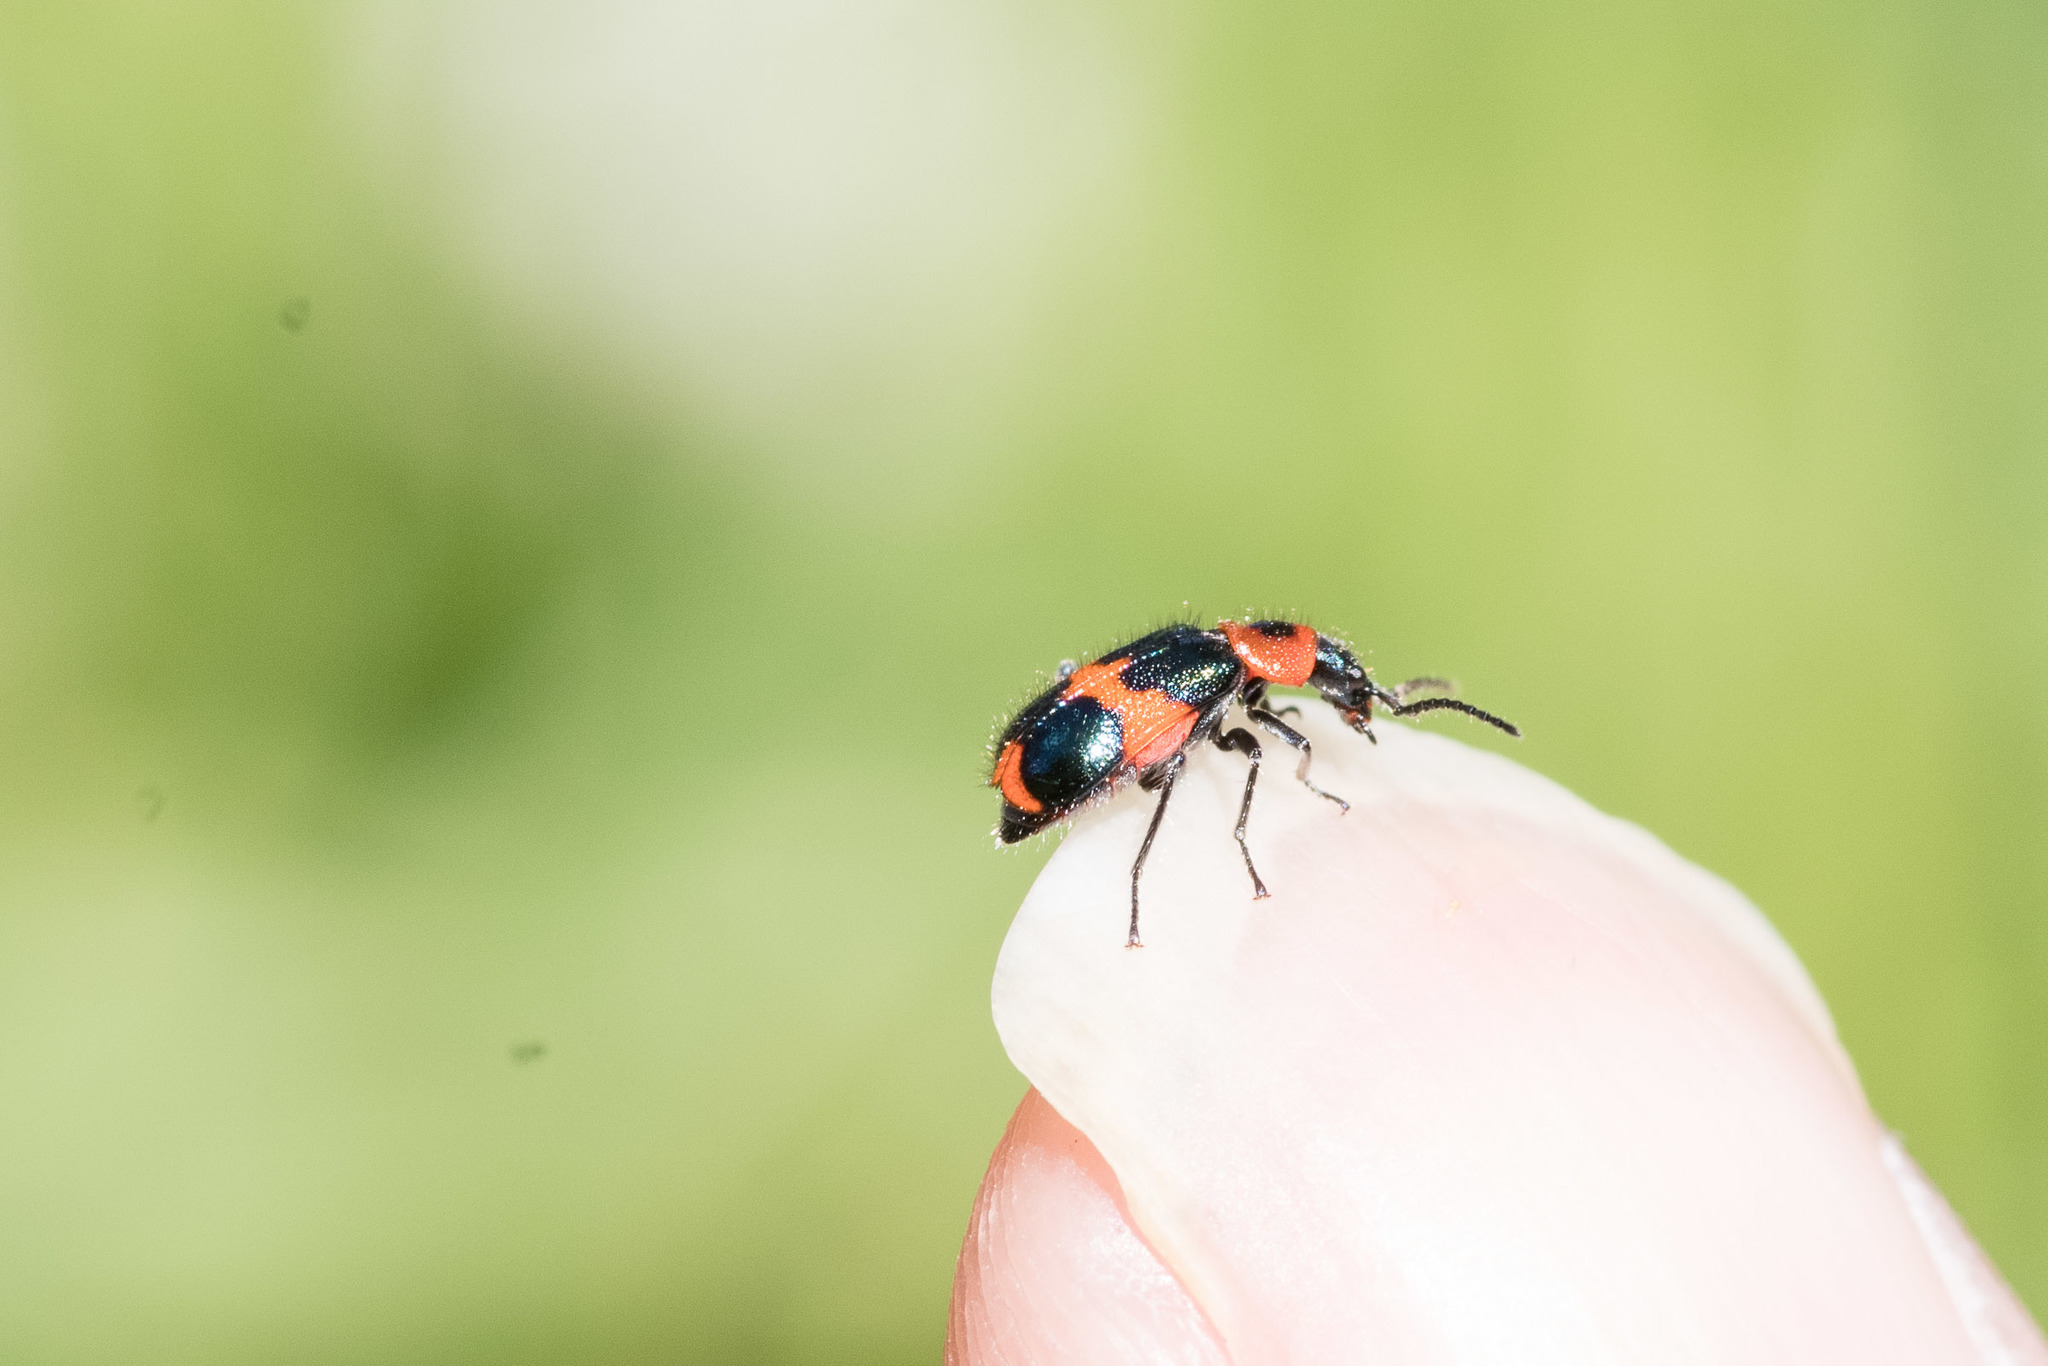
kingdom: Animalia
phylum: Arthropoda
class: Insecta
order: Coleoptera
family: Melyridae
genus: Dicranolaius
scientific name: Dicranolaius bellulus
